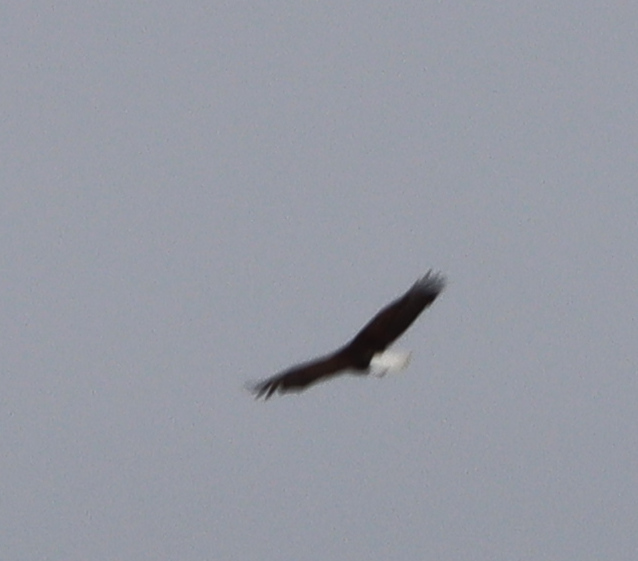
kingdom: Animalia
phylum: Chordata
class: Aves
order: Accipitriformes
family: Accipitridae
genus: Haliaeetus
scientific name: Haliaeetus leucocephalus
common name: Bald eagle
